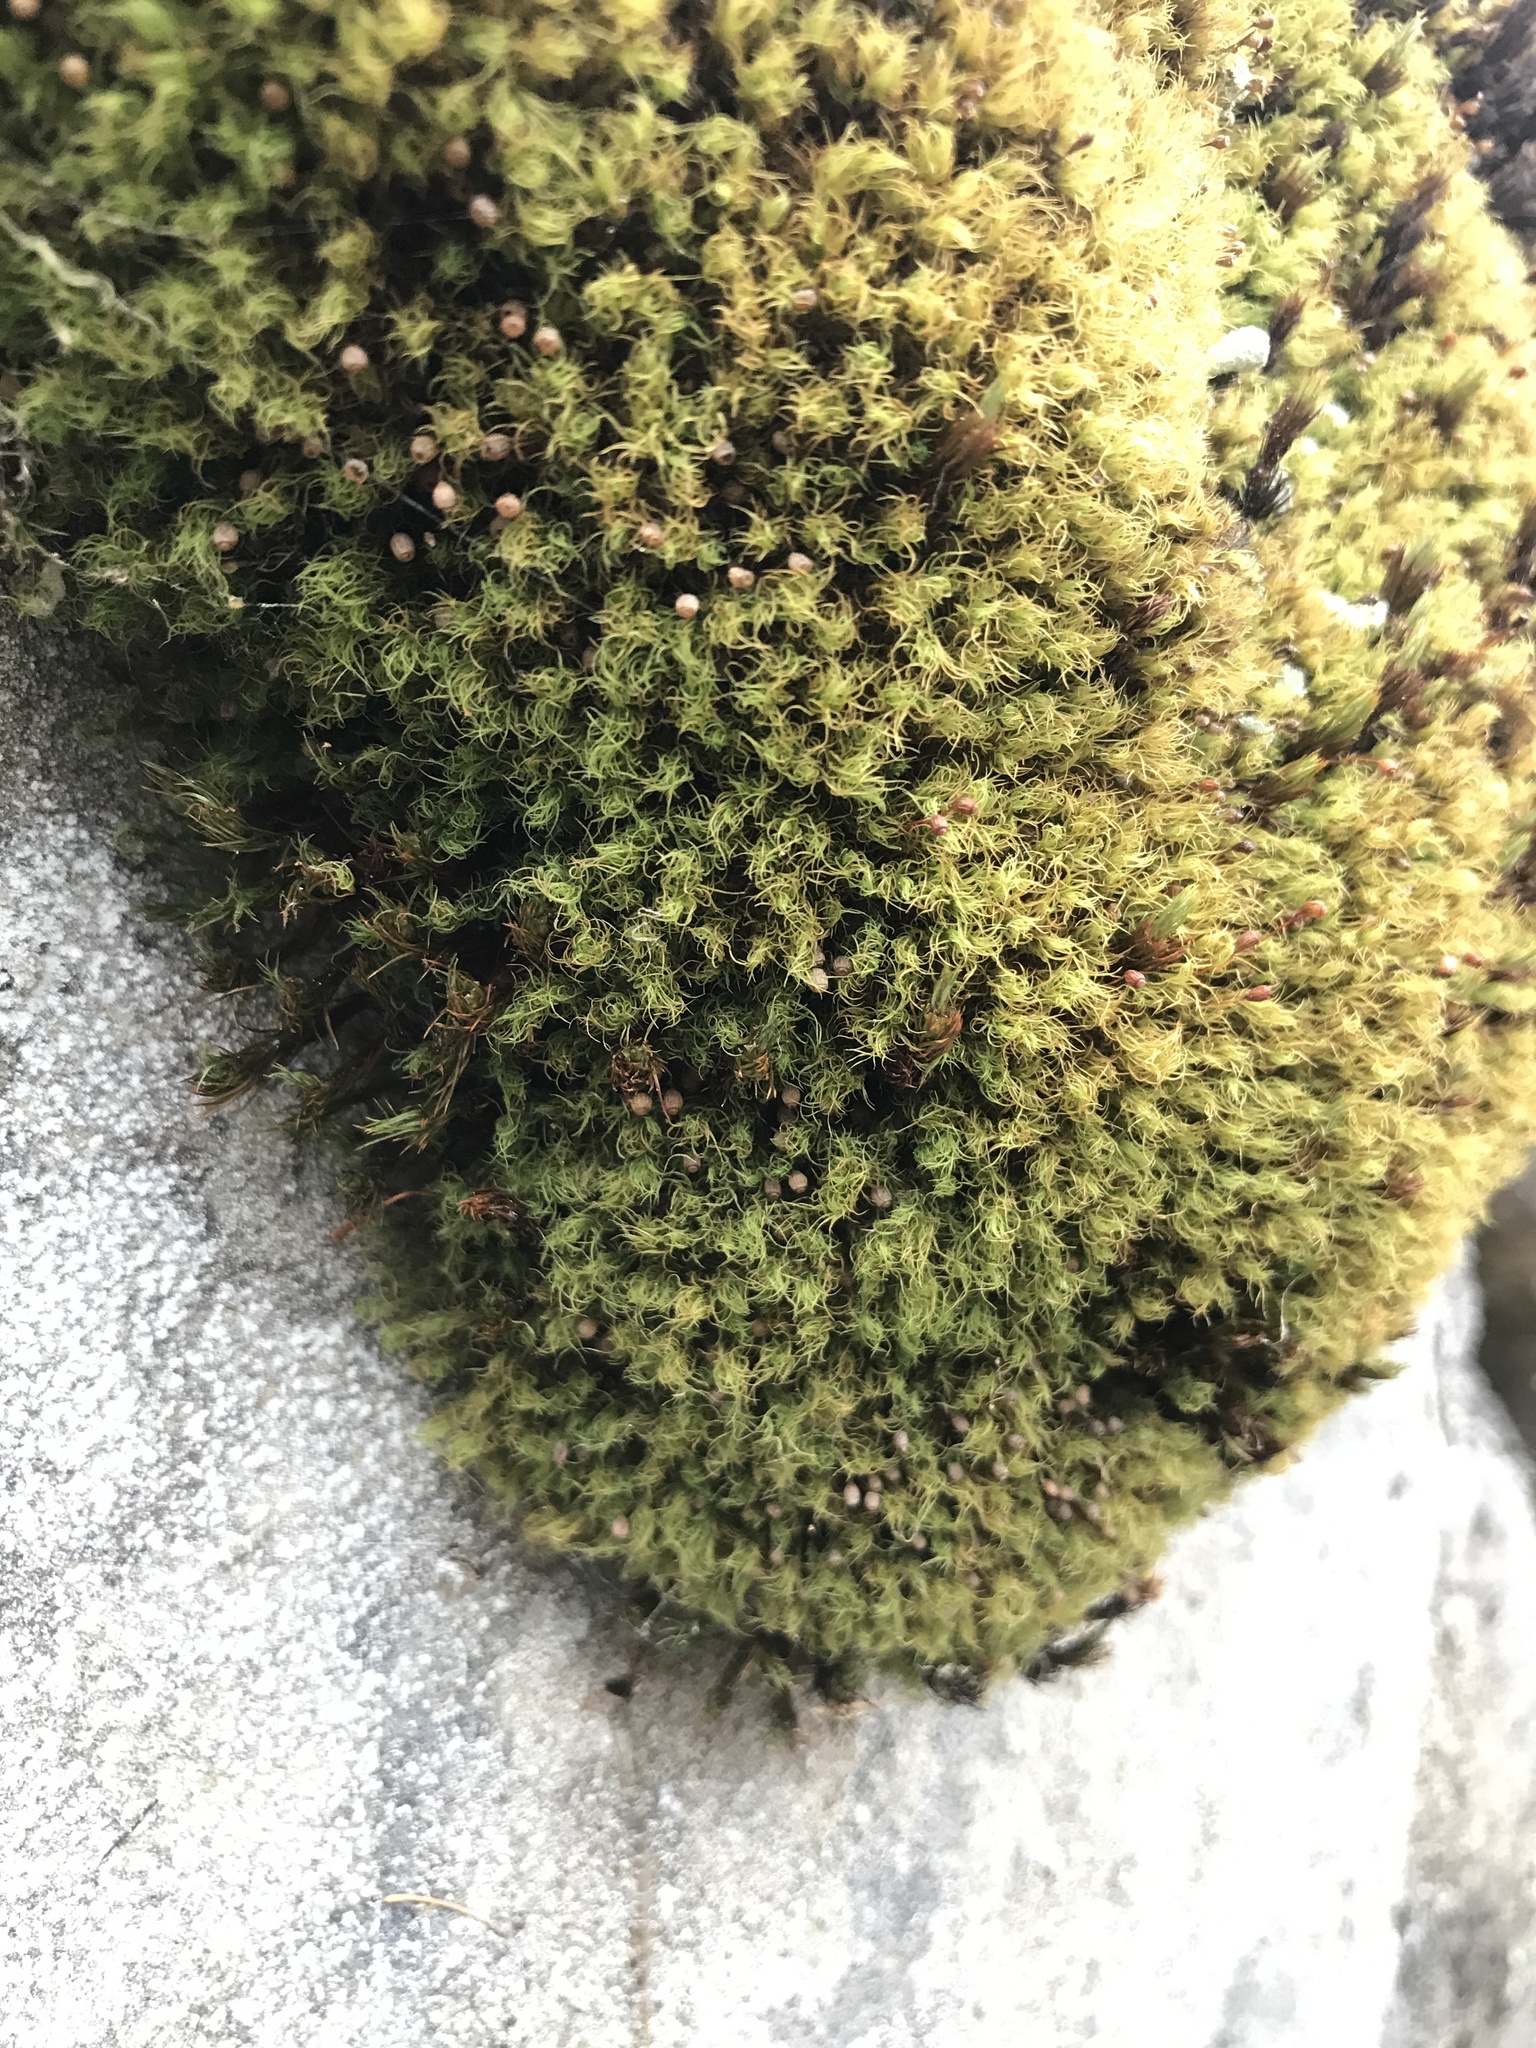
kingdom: Plantae
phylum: Bryophyta
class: Bryopsida
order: Bartramiales
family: Bartramiaceae
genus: Bartramia
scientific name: Bartramia ithyphylla
